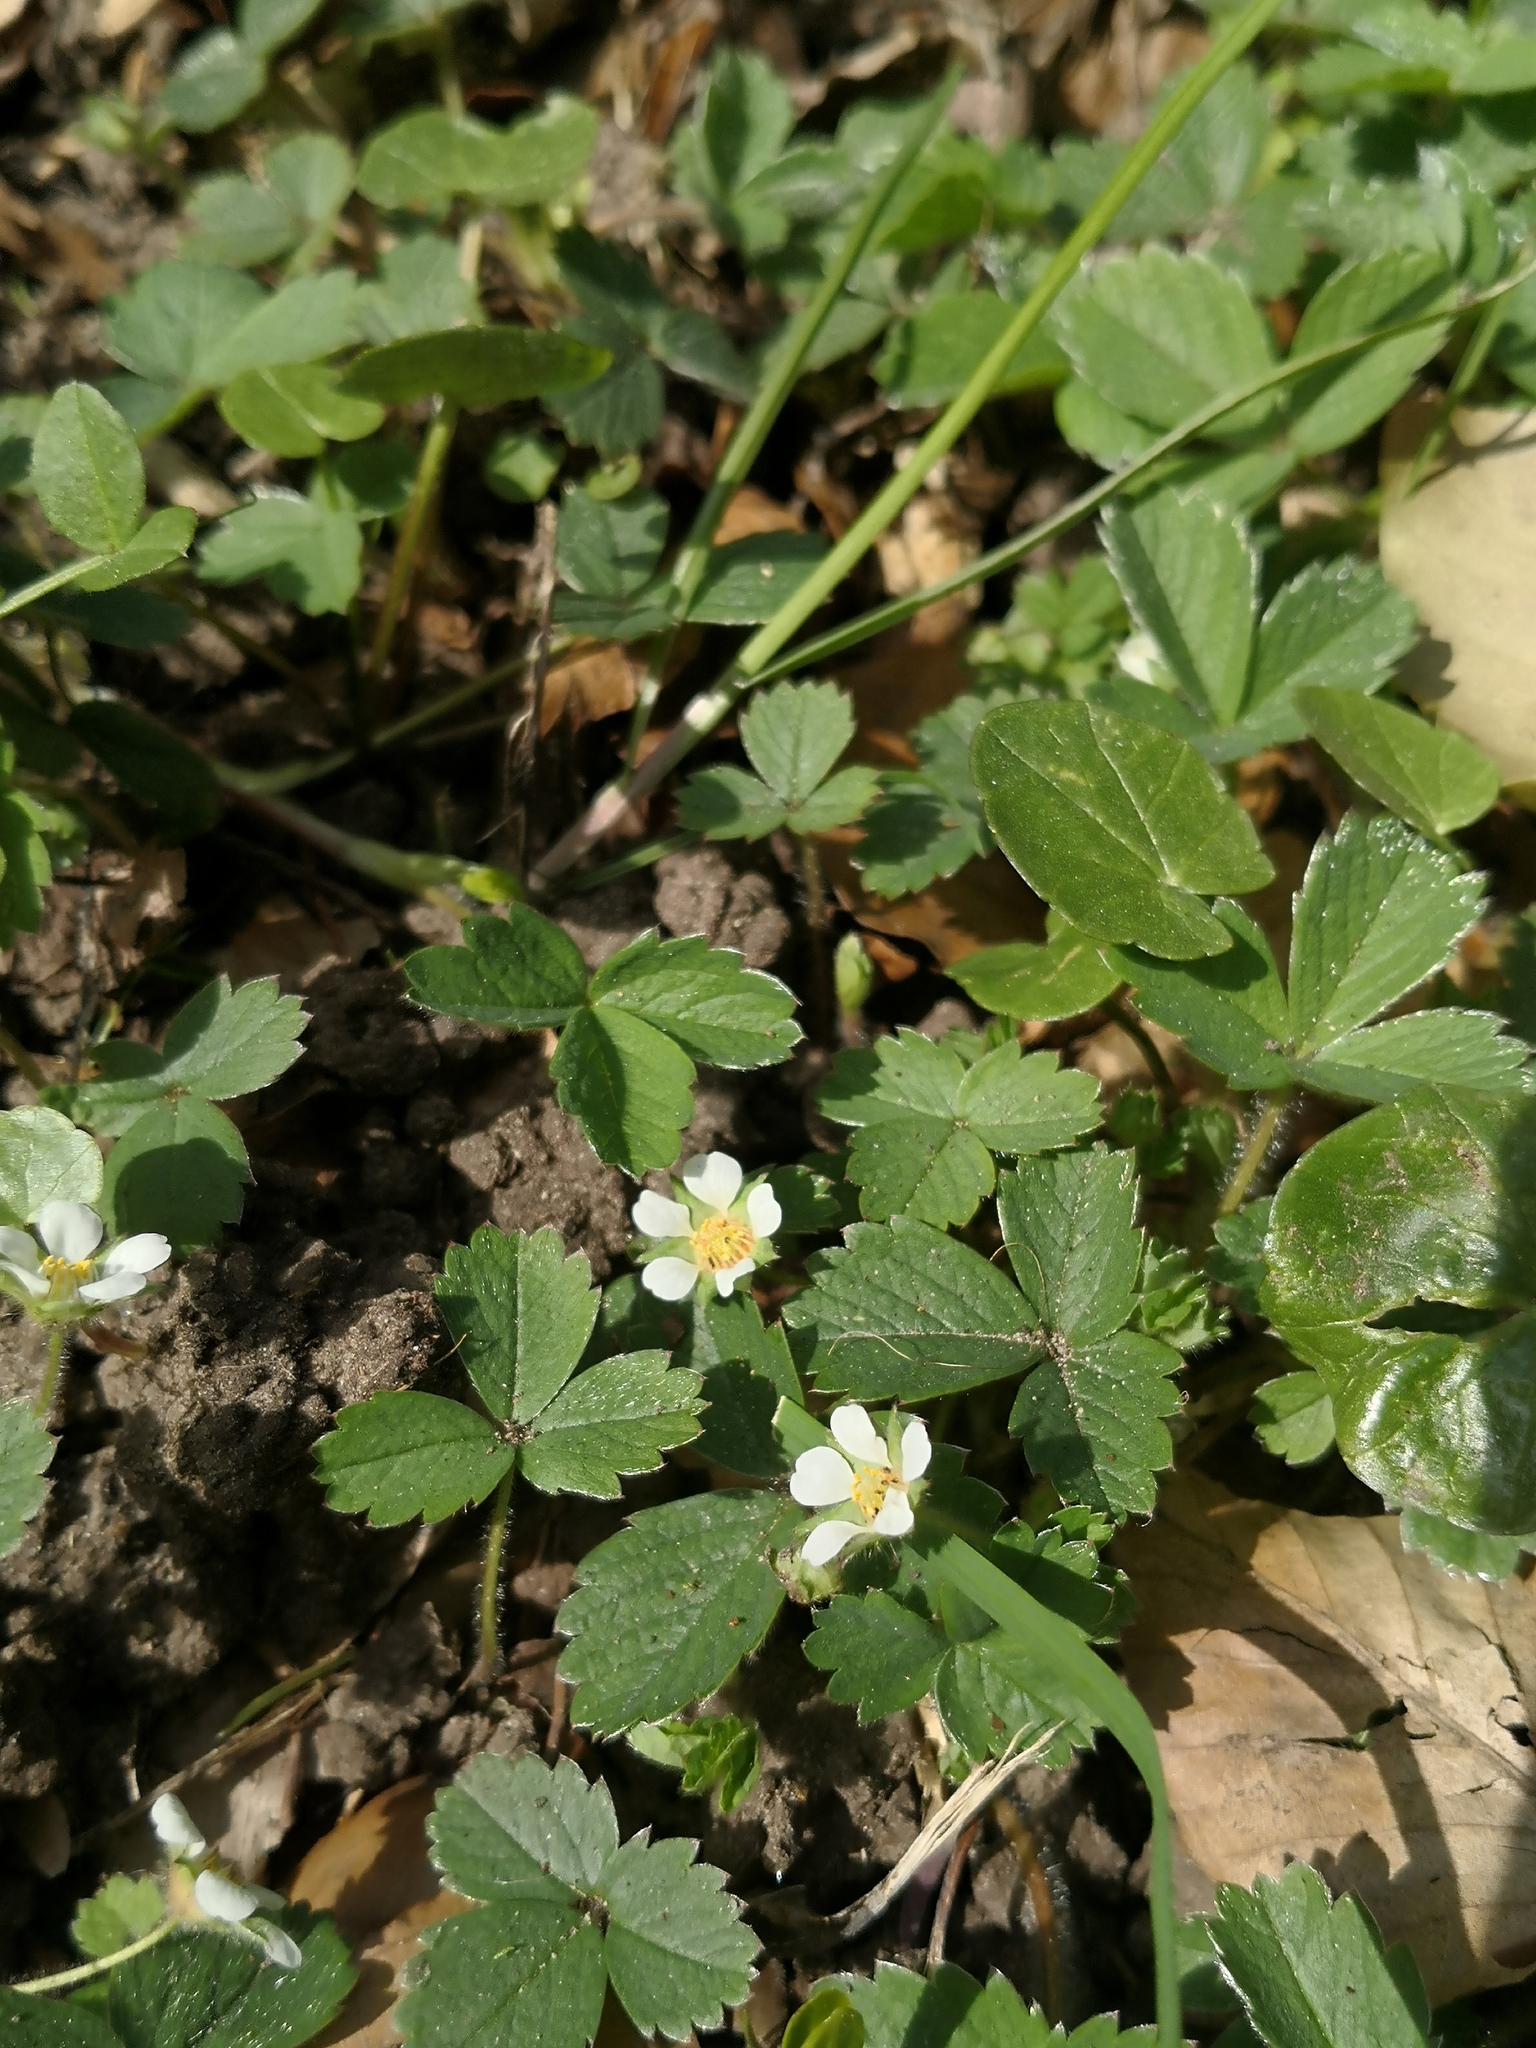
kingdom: Plantae
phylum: Tracheophyta
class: Magnoliopsida
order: Rosales
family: Rosaceae
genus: Potentilla
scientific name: Potentilla sterilis
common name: Barren strawberry
